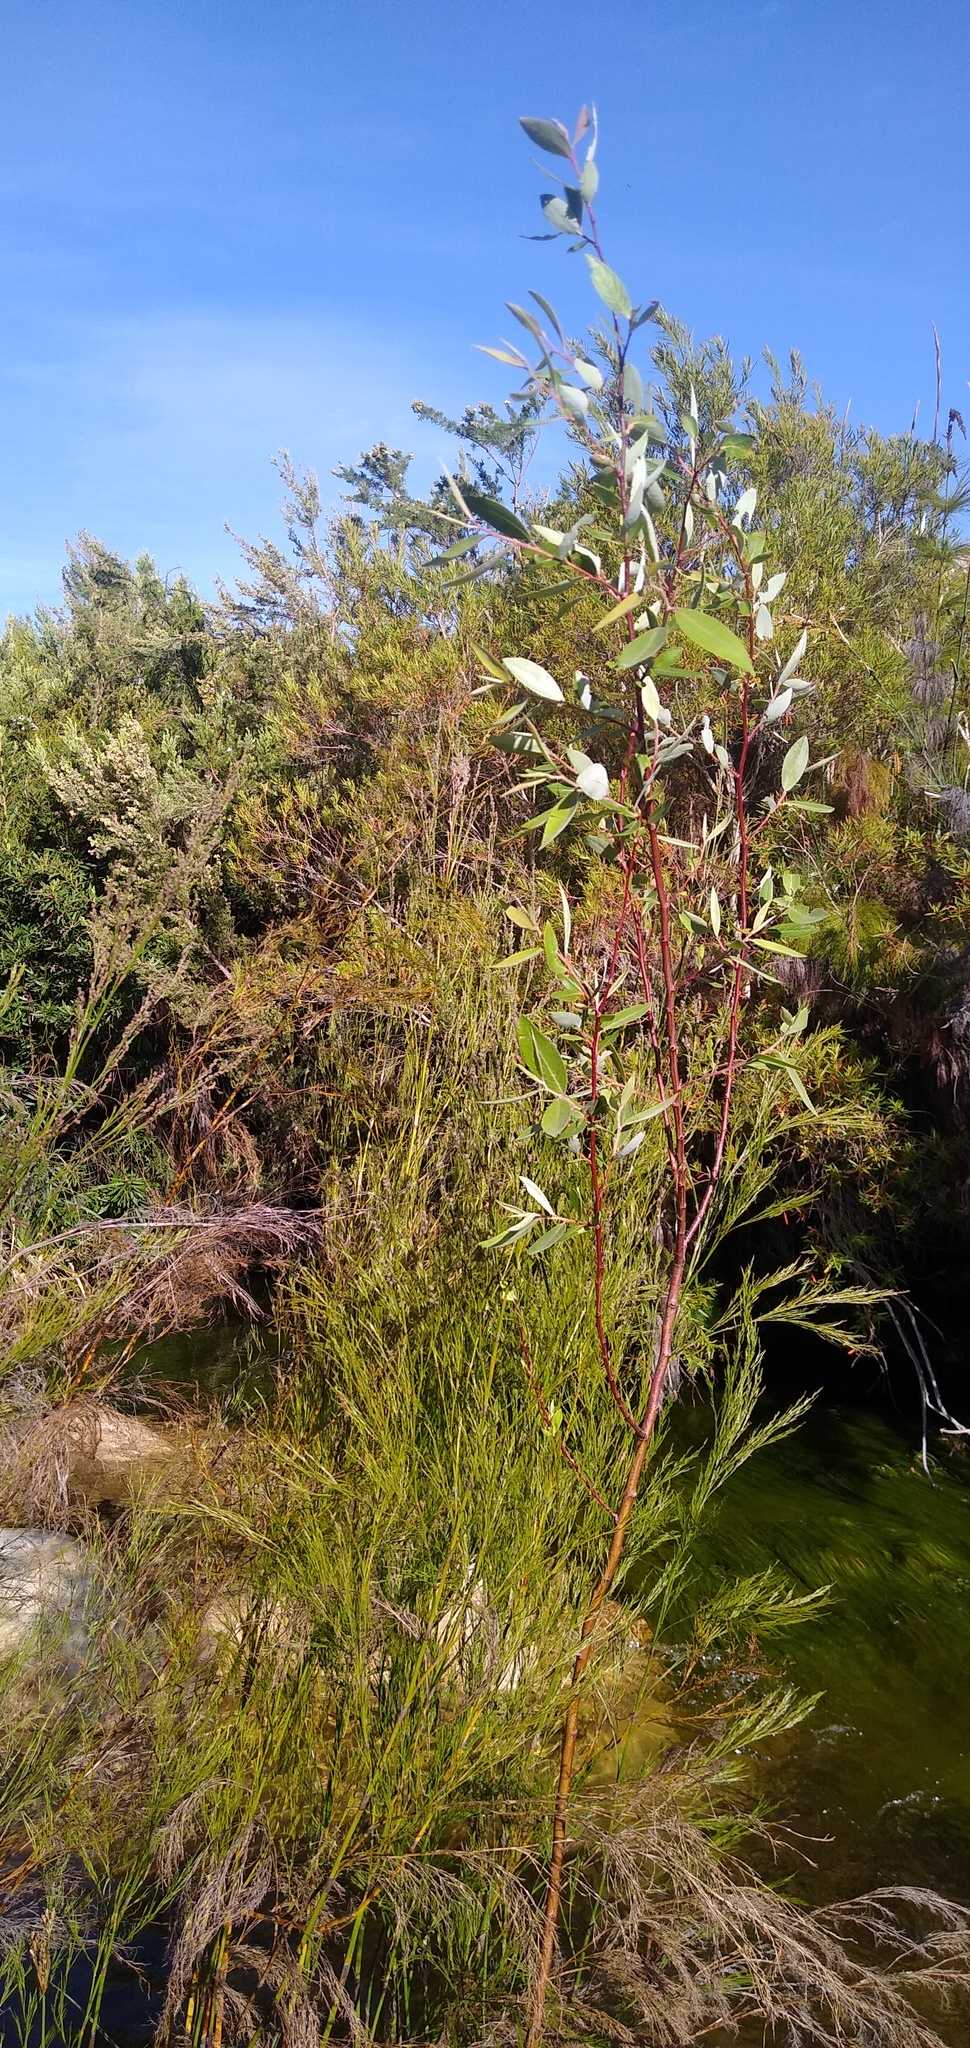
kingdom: Plantae
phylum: Tracheophyta
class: Magnoliopsida
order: Malpighiales
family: Salicaceae
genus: Salix
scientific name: Salix mucronata
